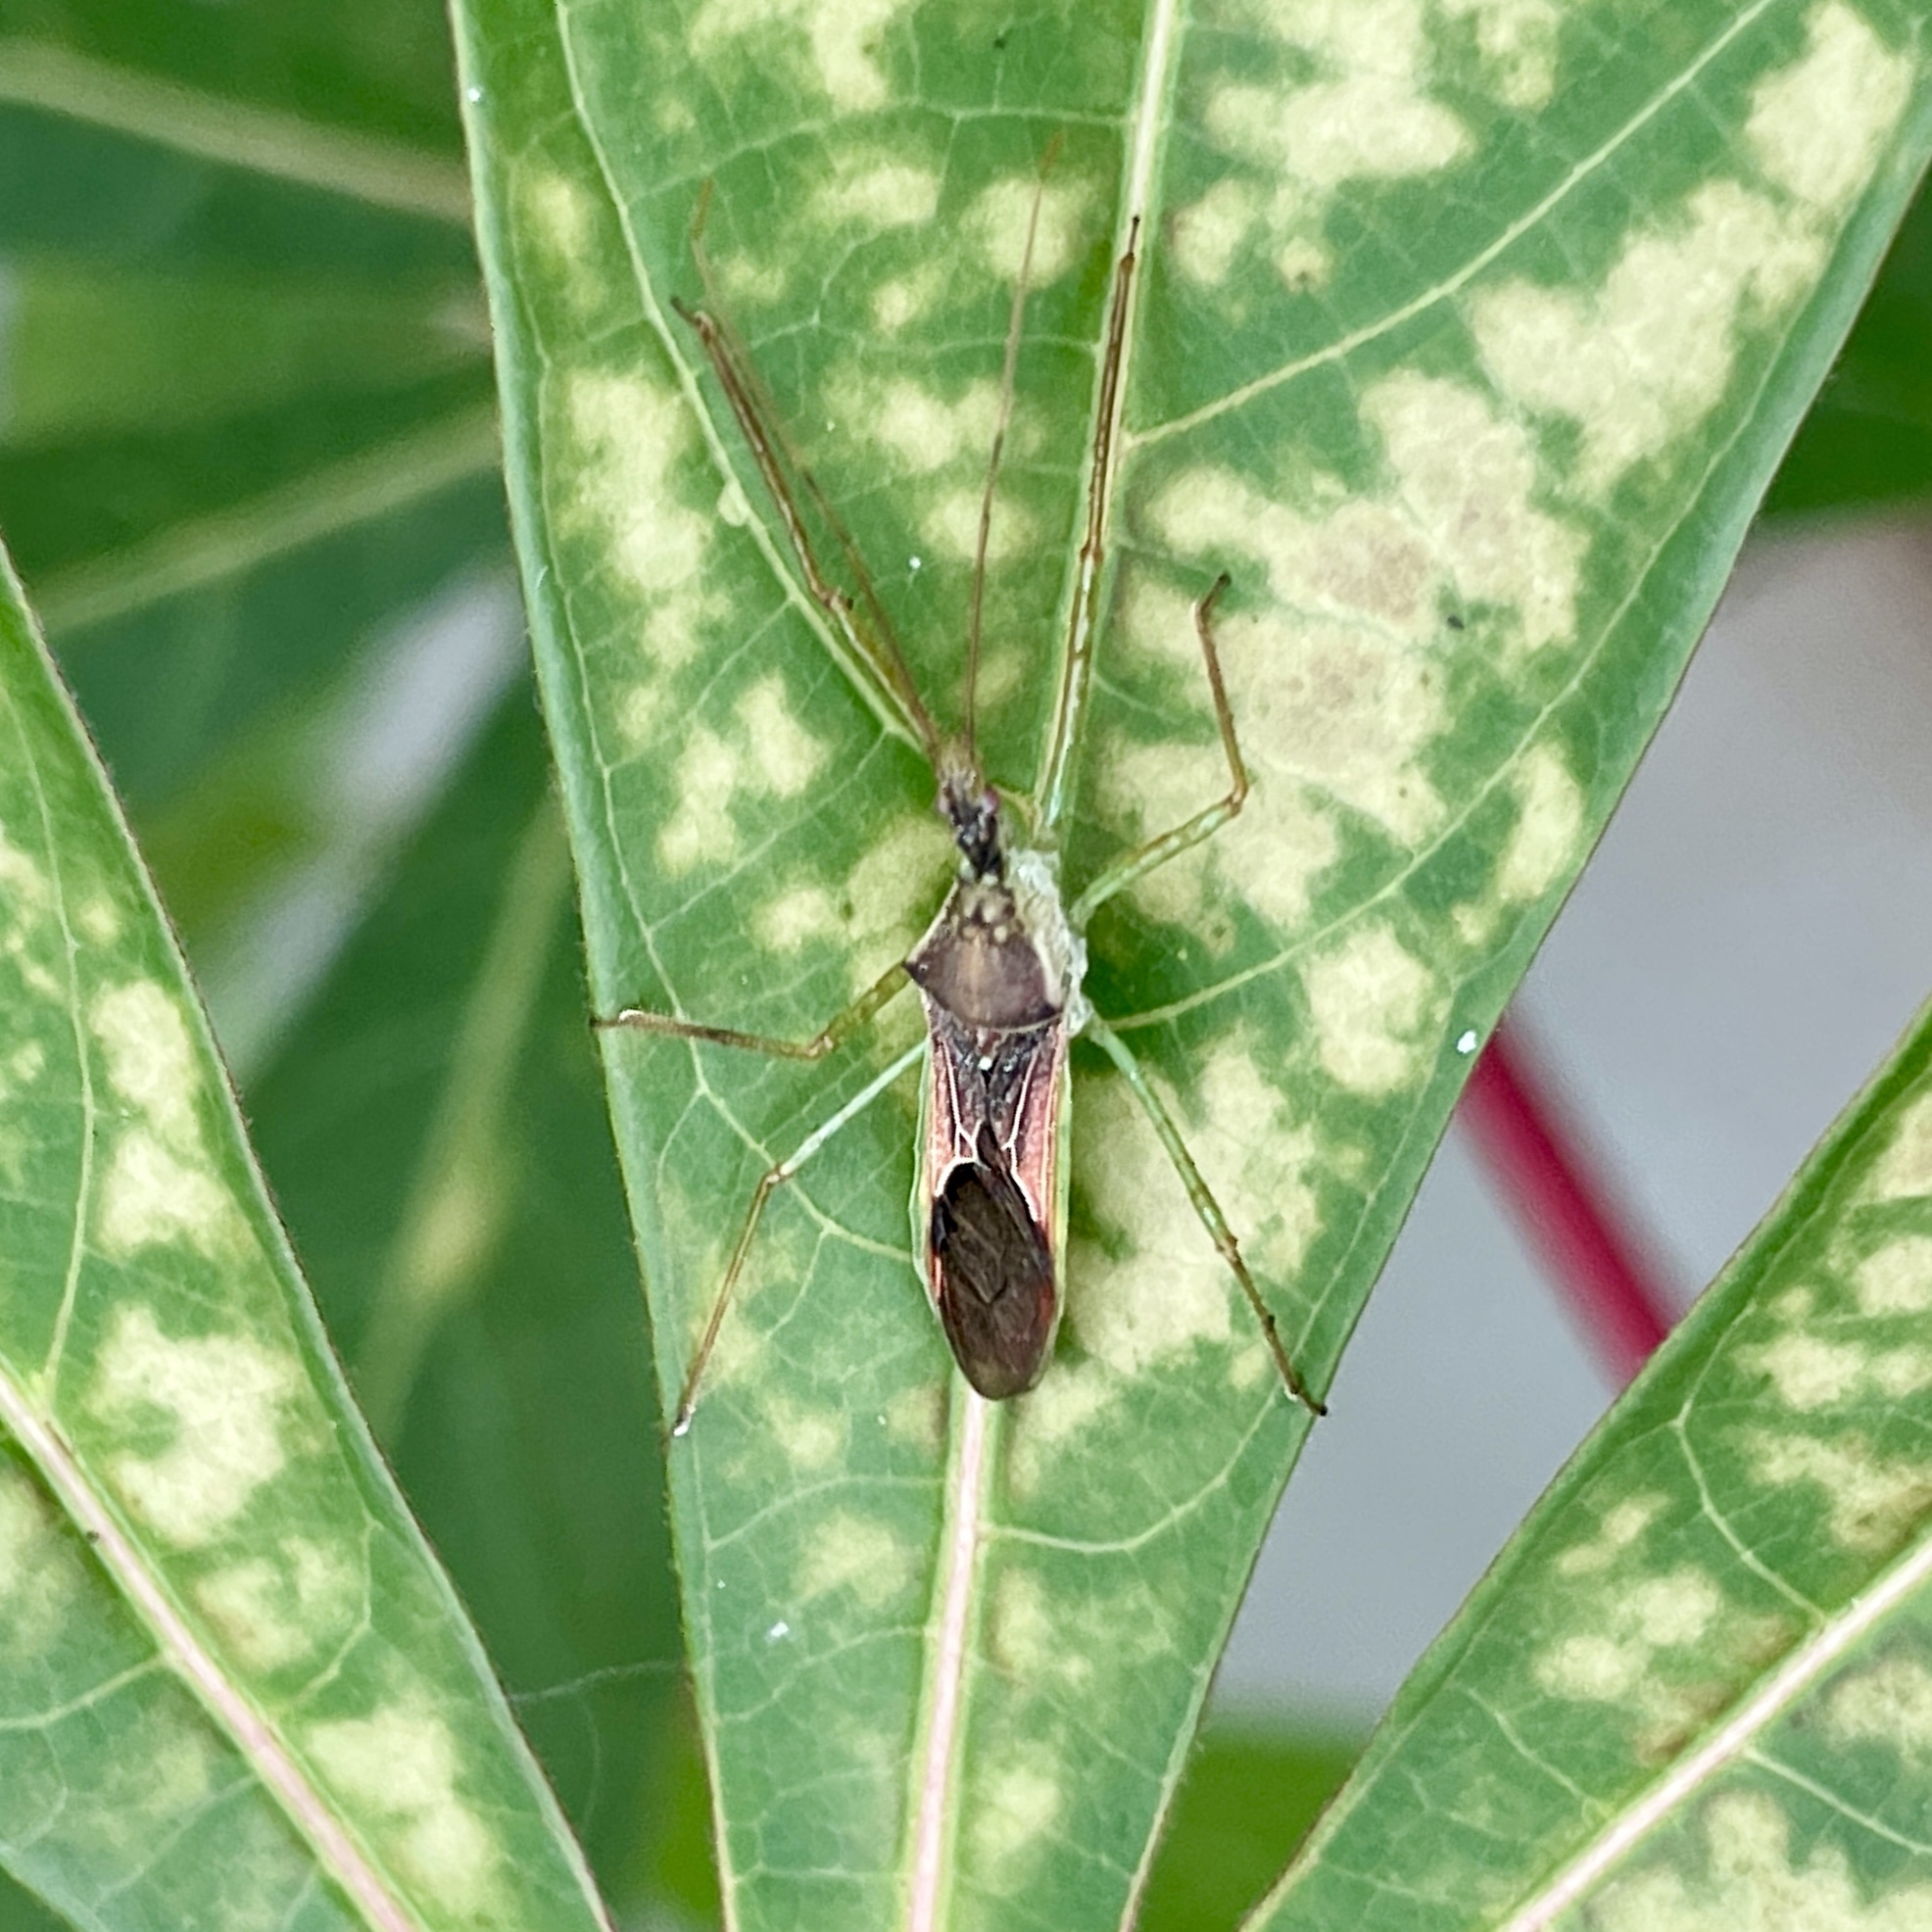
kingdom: Animalia
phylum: Arthropoda
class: Insecta
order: Hemiptera
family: Reduviidae
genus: Zelus
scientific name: Zelus renardii
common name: Assassin bug
